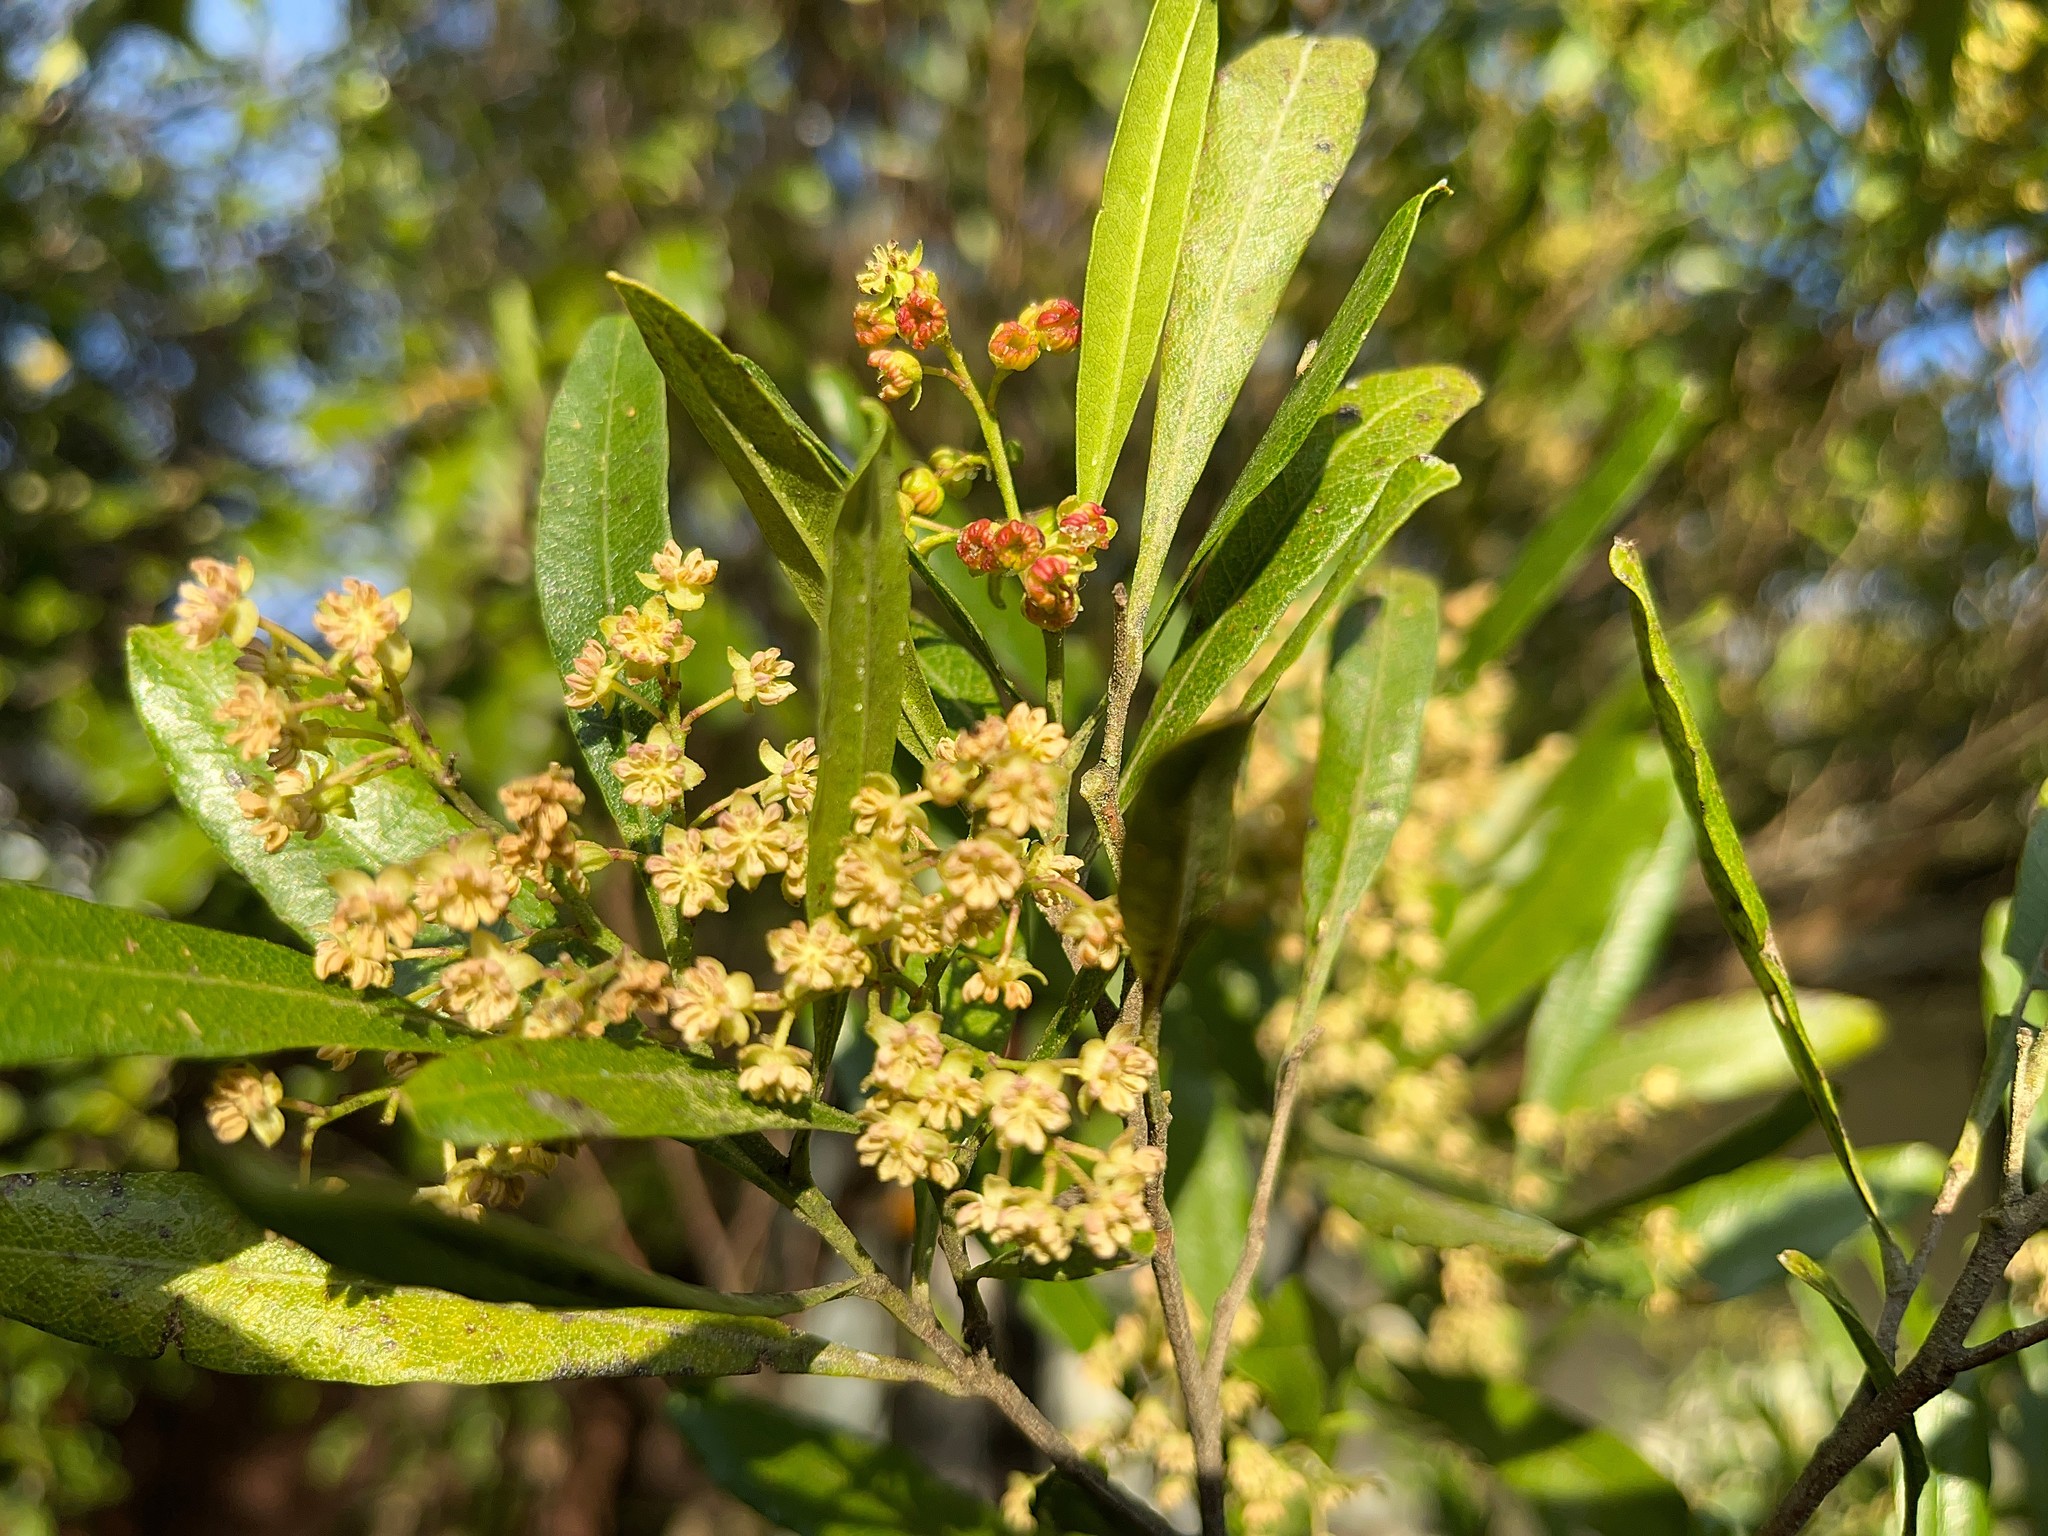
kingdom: Plantae
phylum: Tracheophyta
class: Magnoliopsida
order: Sapindales
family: Sapindaceae
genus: Dodonaea
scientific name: Dodonaea viscosa
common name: Hopbush
